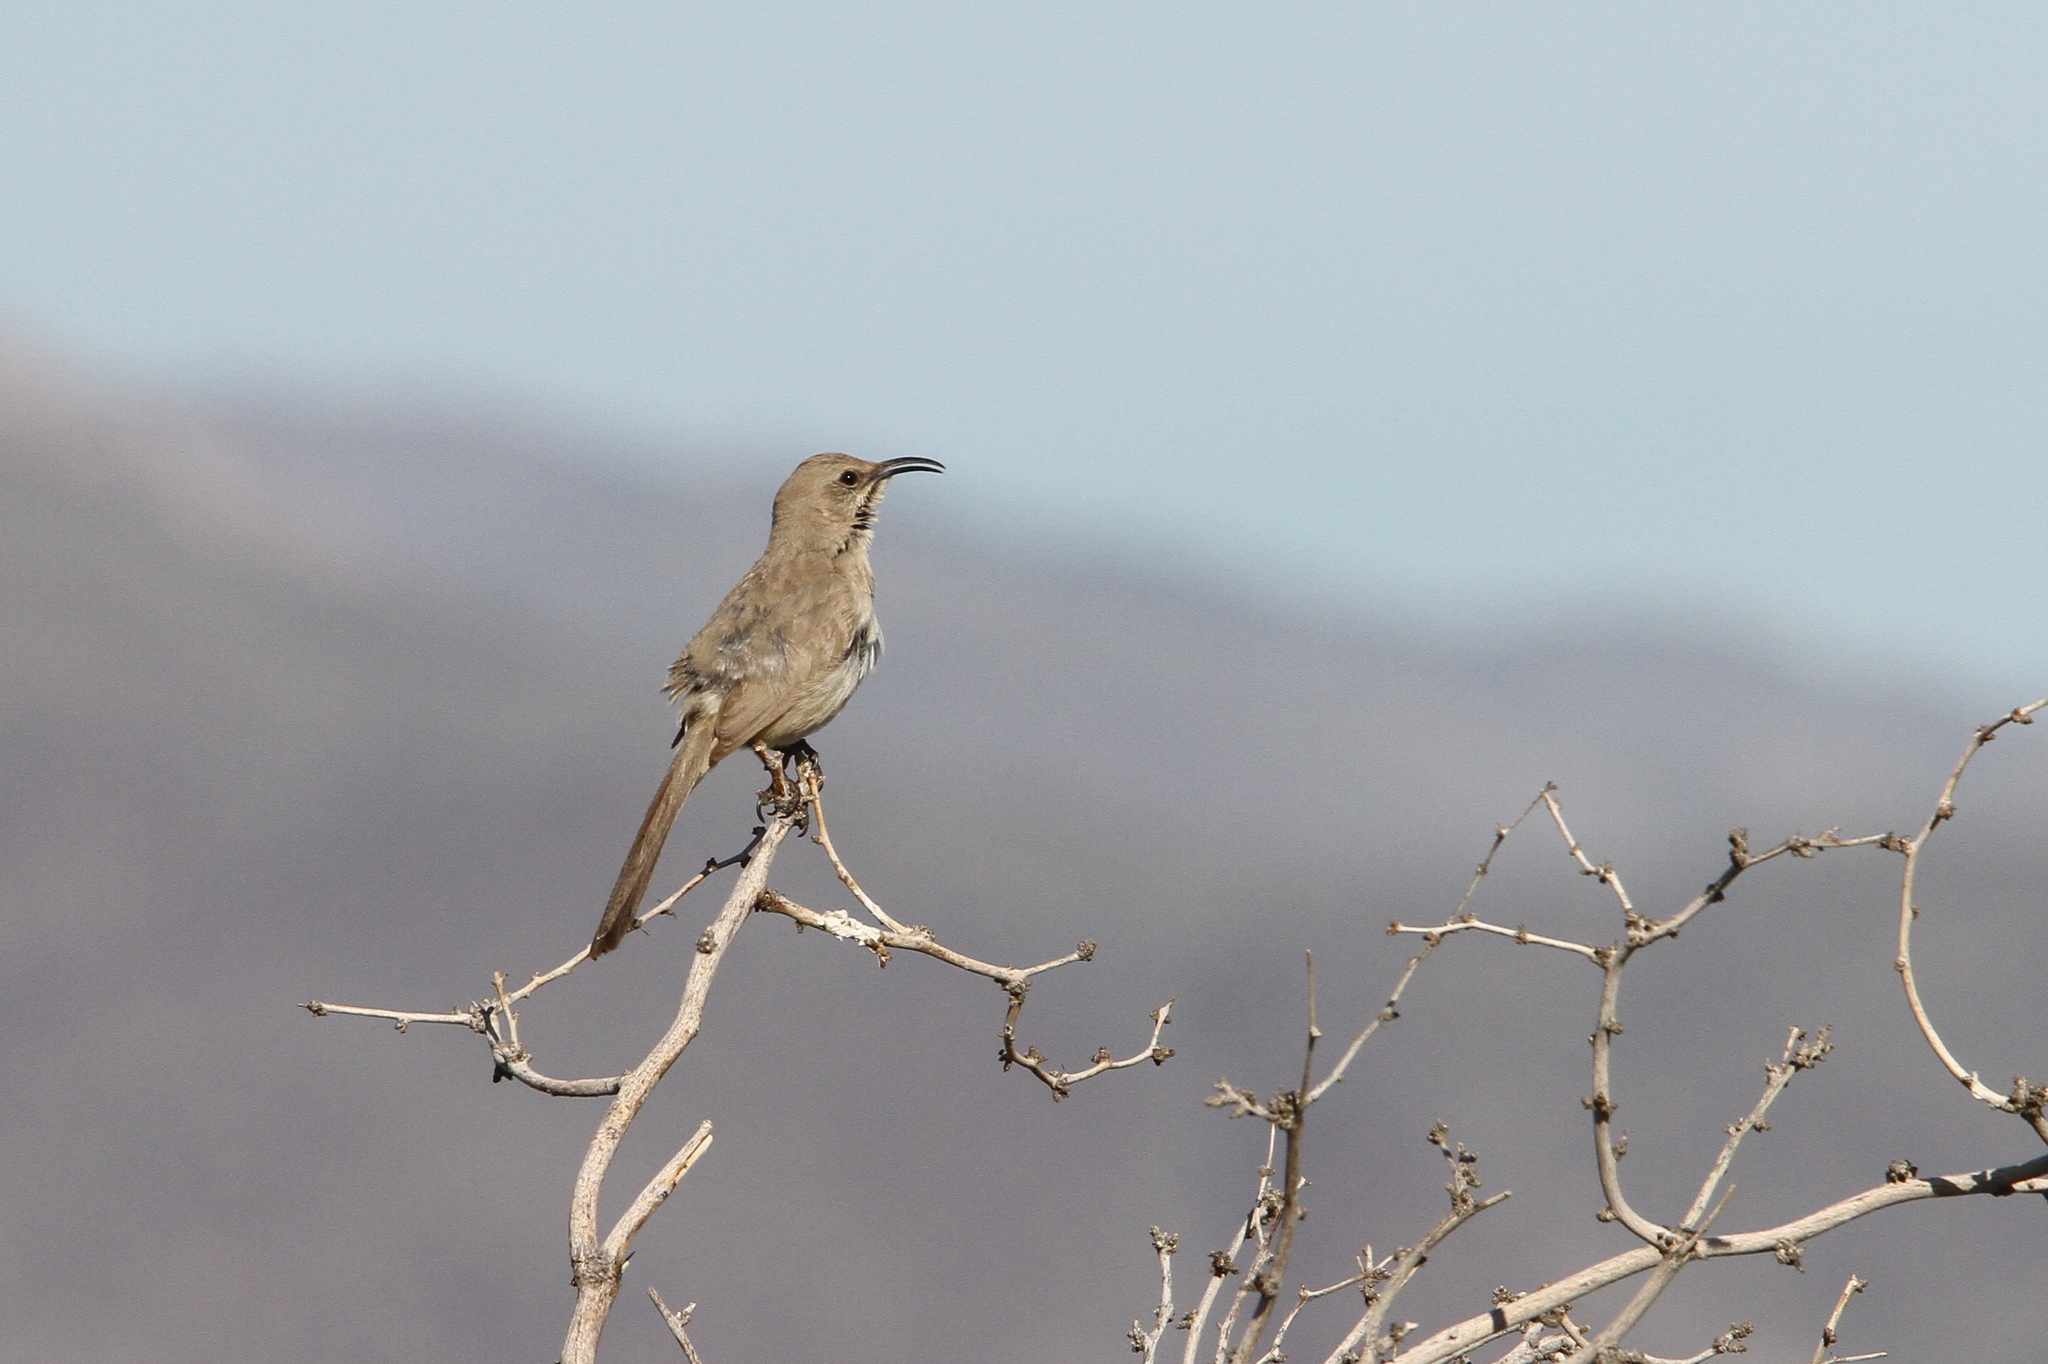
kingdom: Animalia
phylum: Chordata
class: Aves
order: Passeriformes
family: Mimidae
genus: Toxostoma
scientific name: Toxostoma lecontei
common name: Le conte's thrasher
